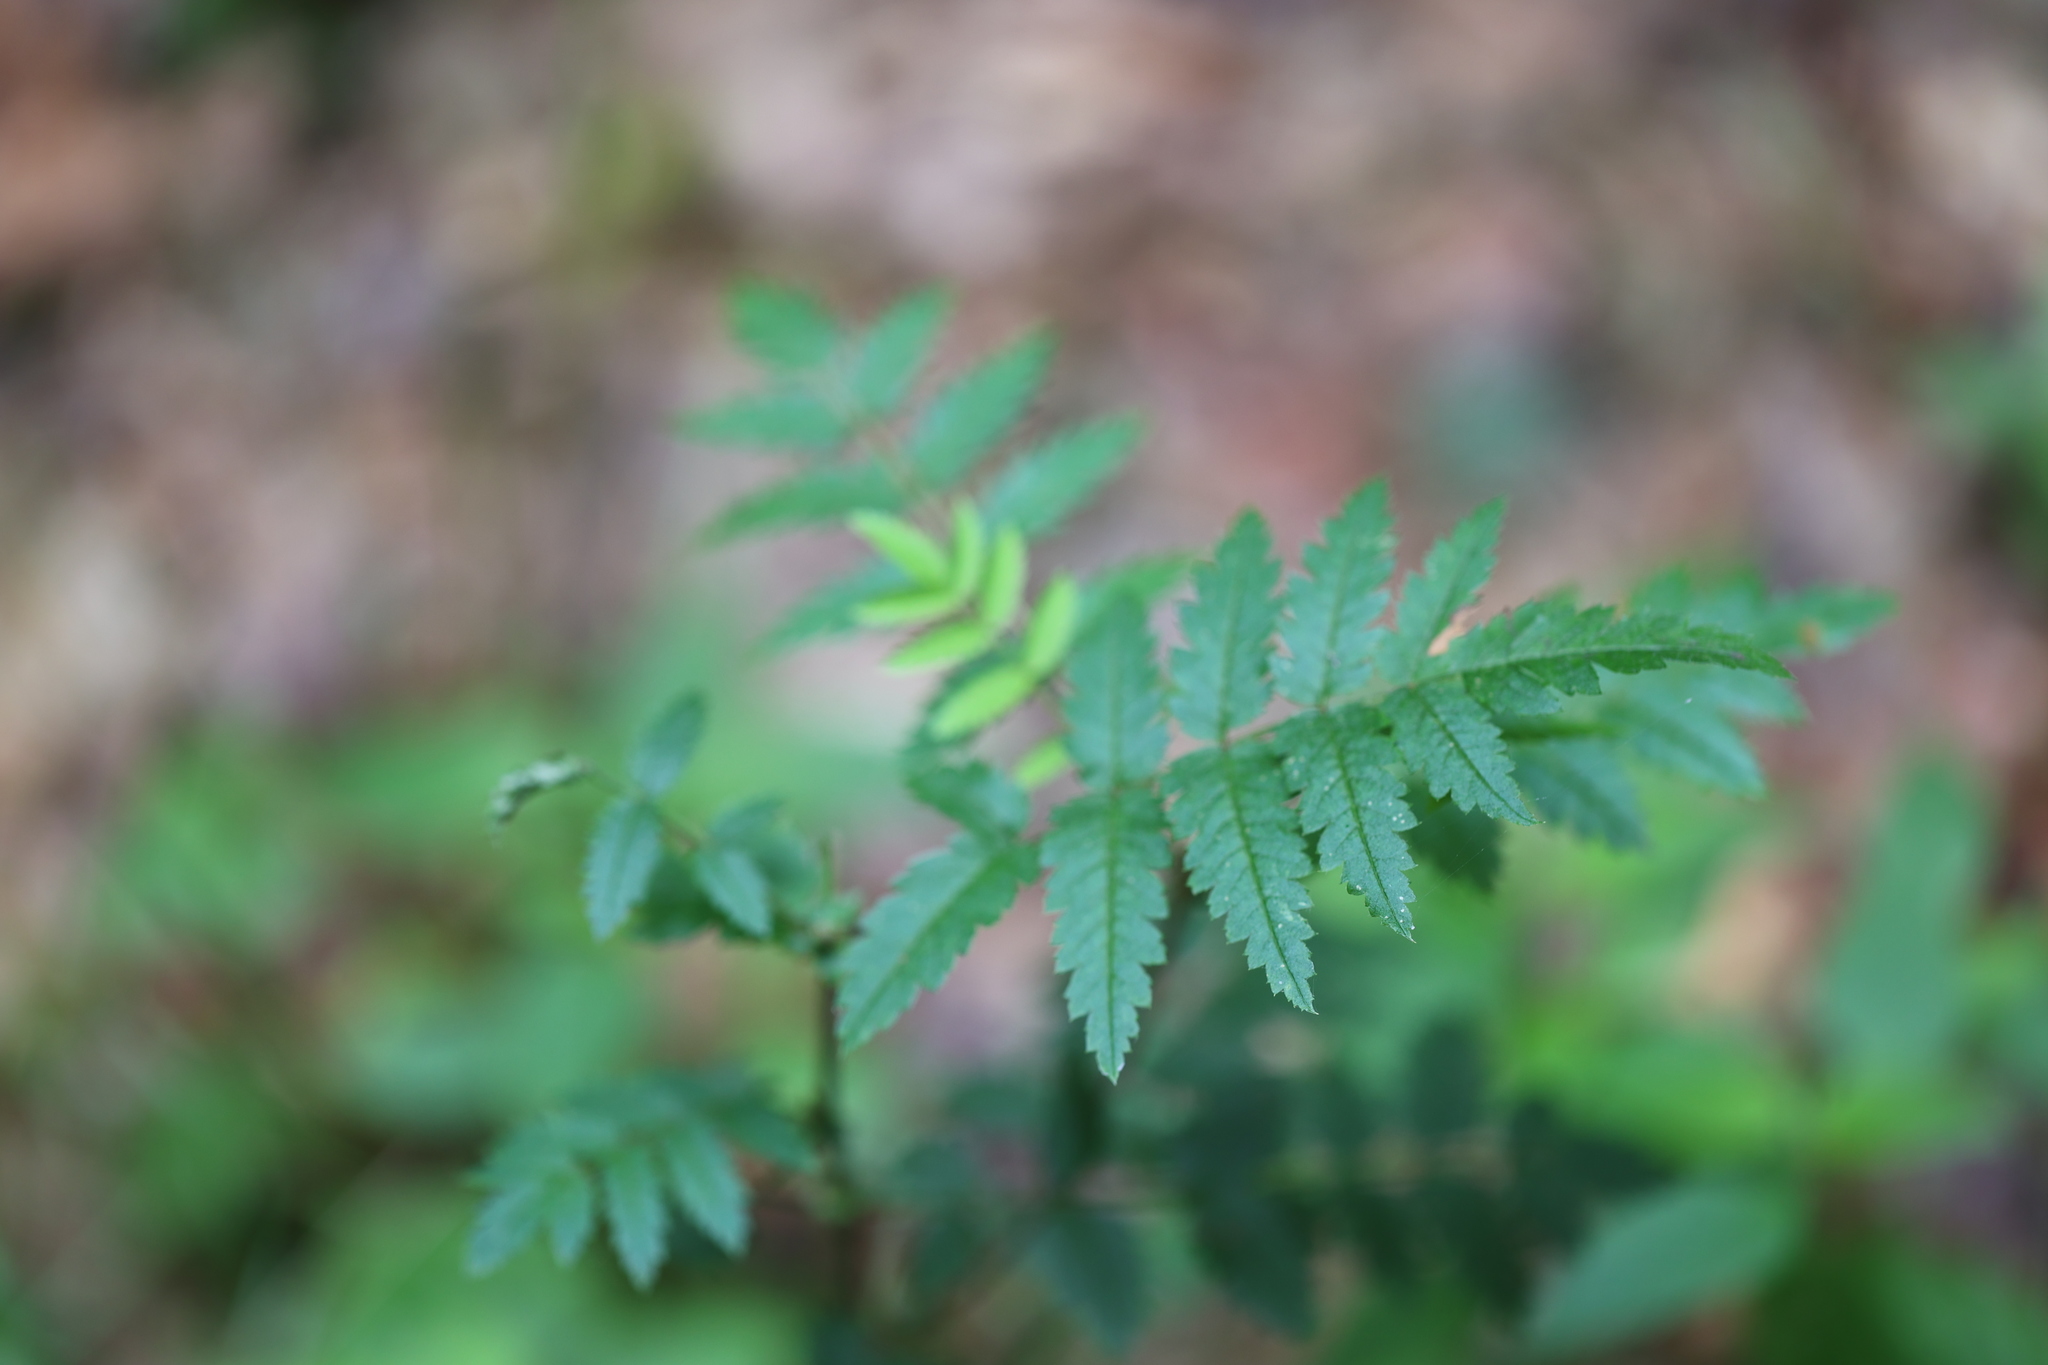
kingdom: Plantae
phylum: Tracheophyta
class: Magnoliopsida
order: Rosales
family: Rosaceae
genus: Sorbus
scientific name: Sorbus aucuparia
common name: Rowan
